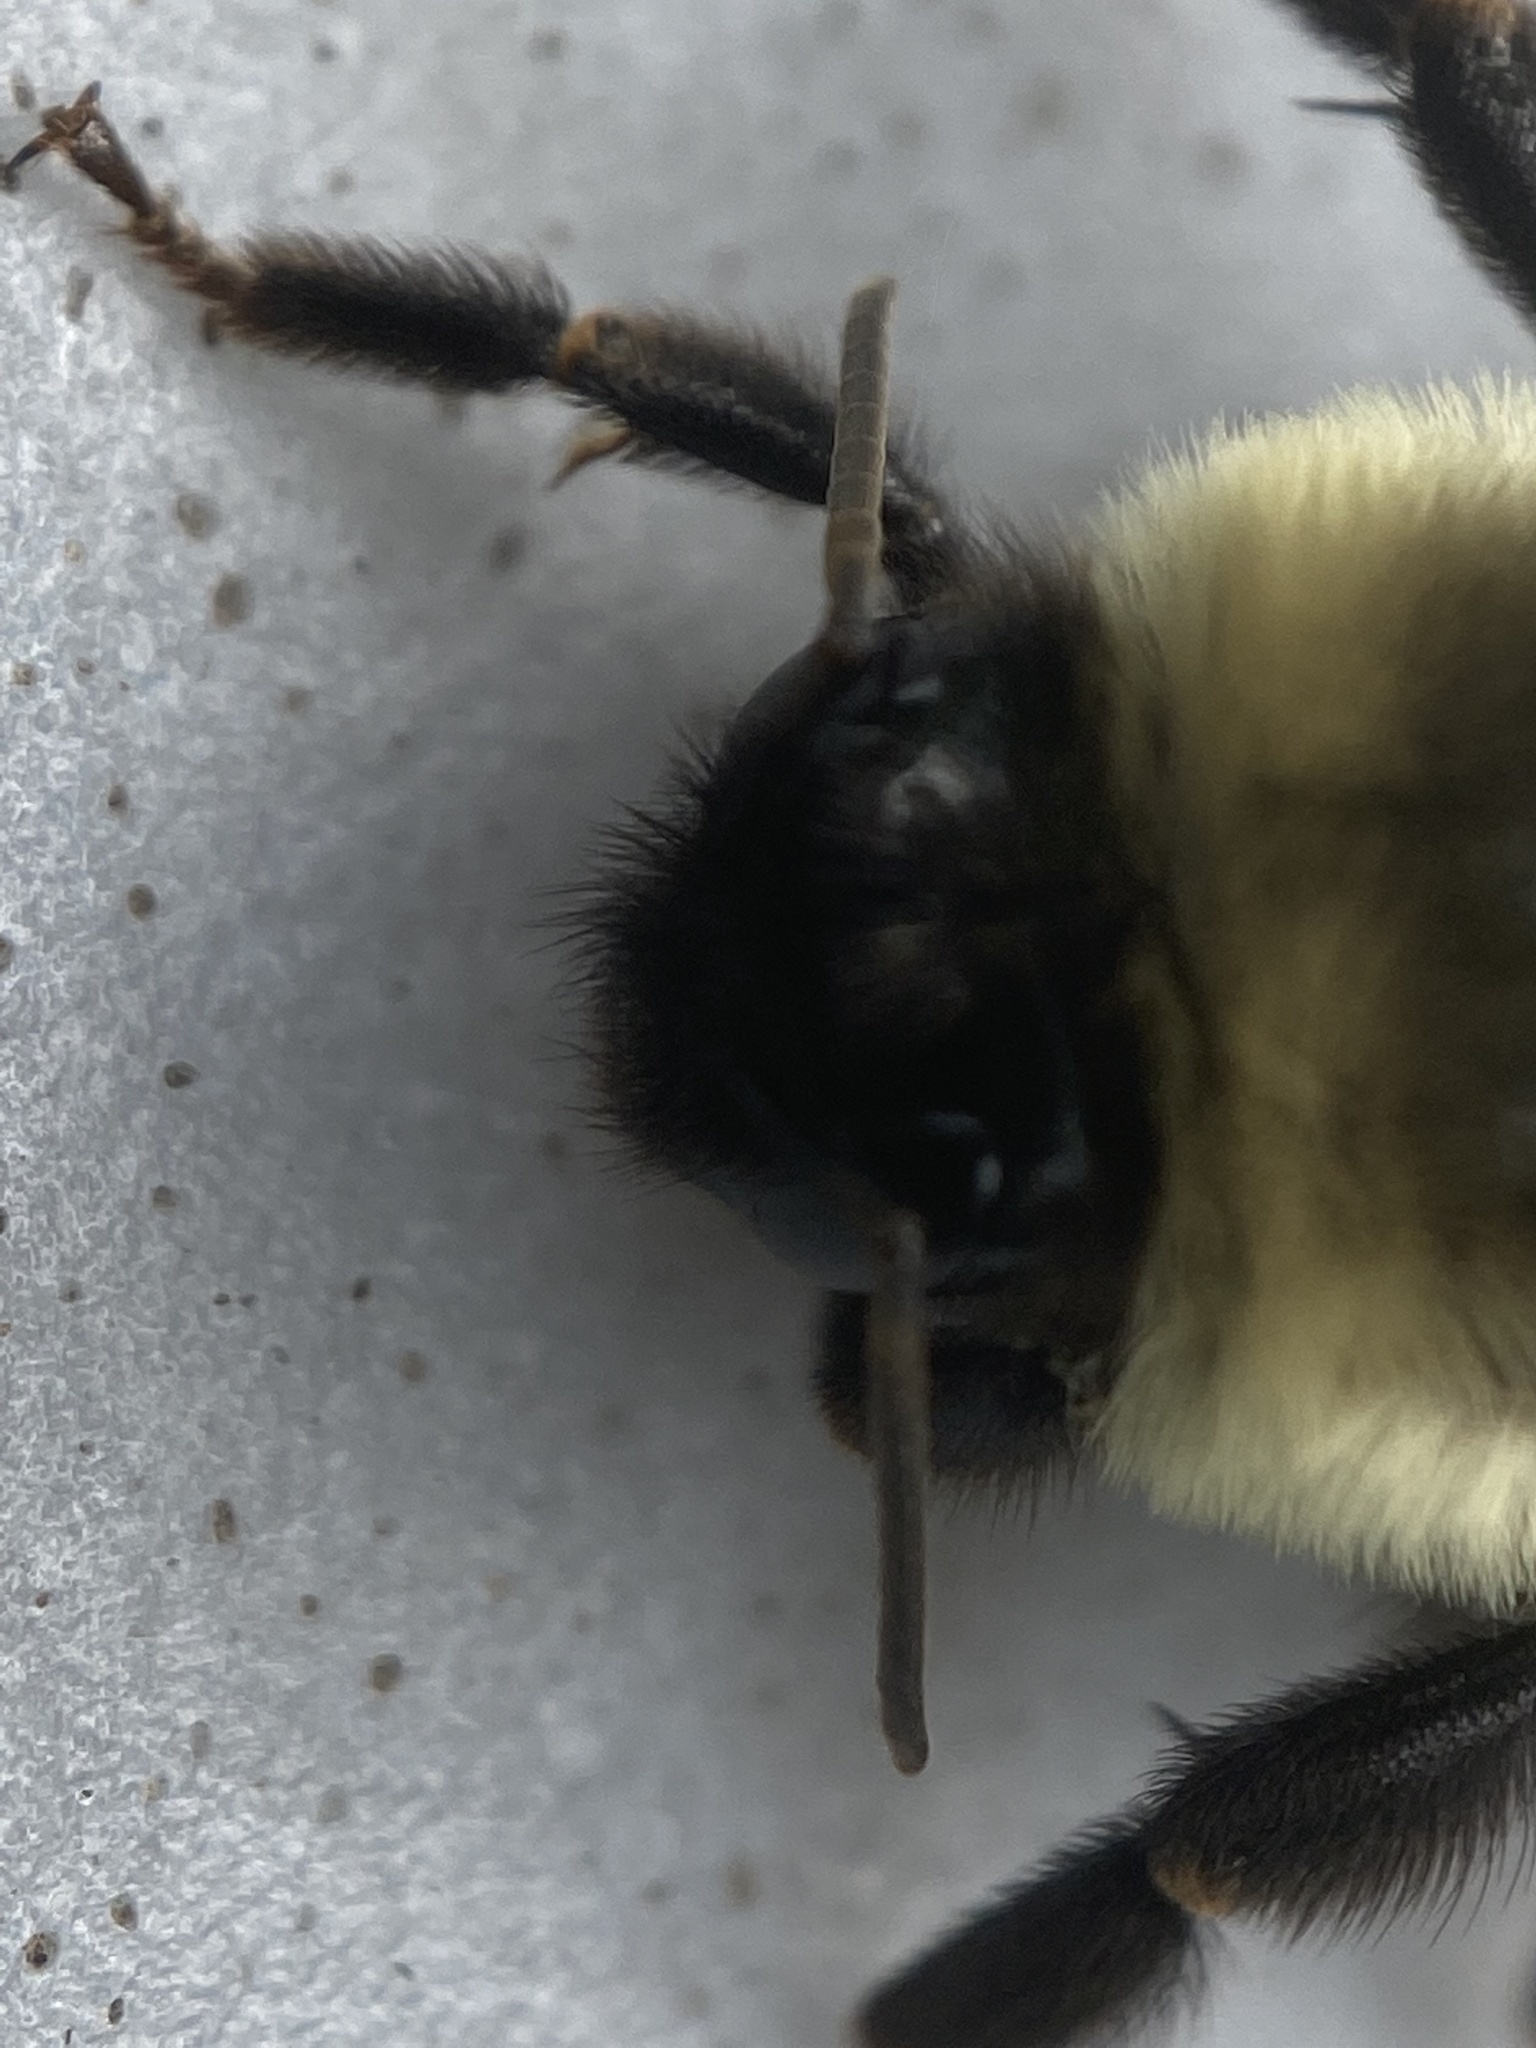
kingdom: Animalia
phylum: Arthropoda
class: Insecta
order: Hymenoptera
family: Apidae
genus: Bombus
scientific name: Bombus impatiens
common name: Common eastern bumble bee
